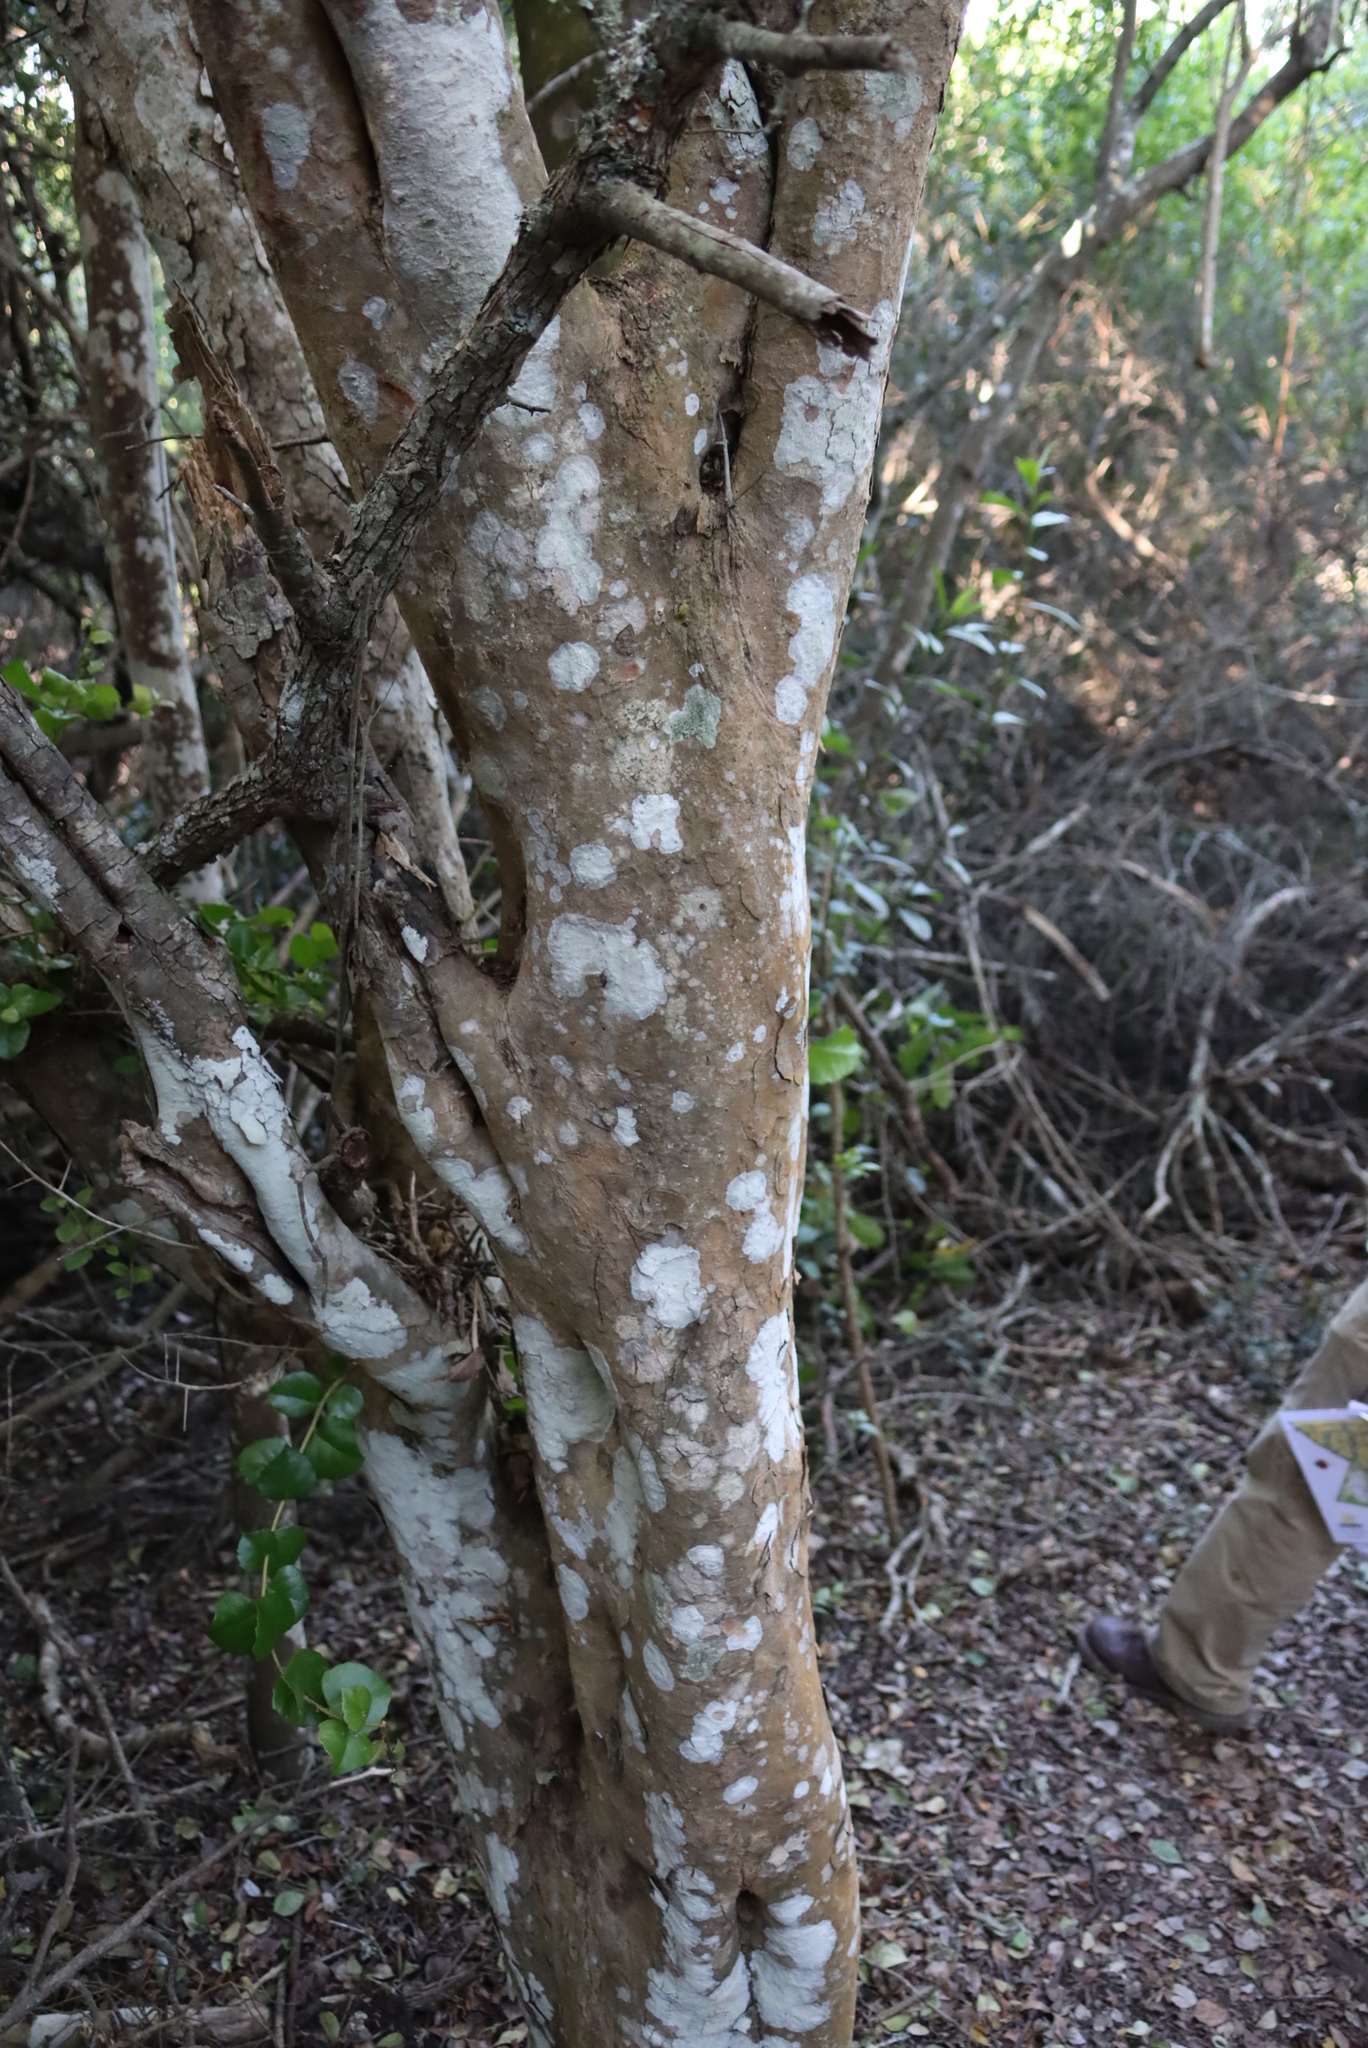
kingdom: Plantae
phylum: Tracheophyta
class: Magnoliopsida
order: Celastrales
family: Celastraceae
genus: Gymnosporia
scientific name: Gymnosporia buxifolia
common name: Common spike-thorn
